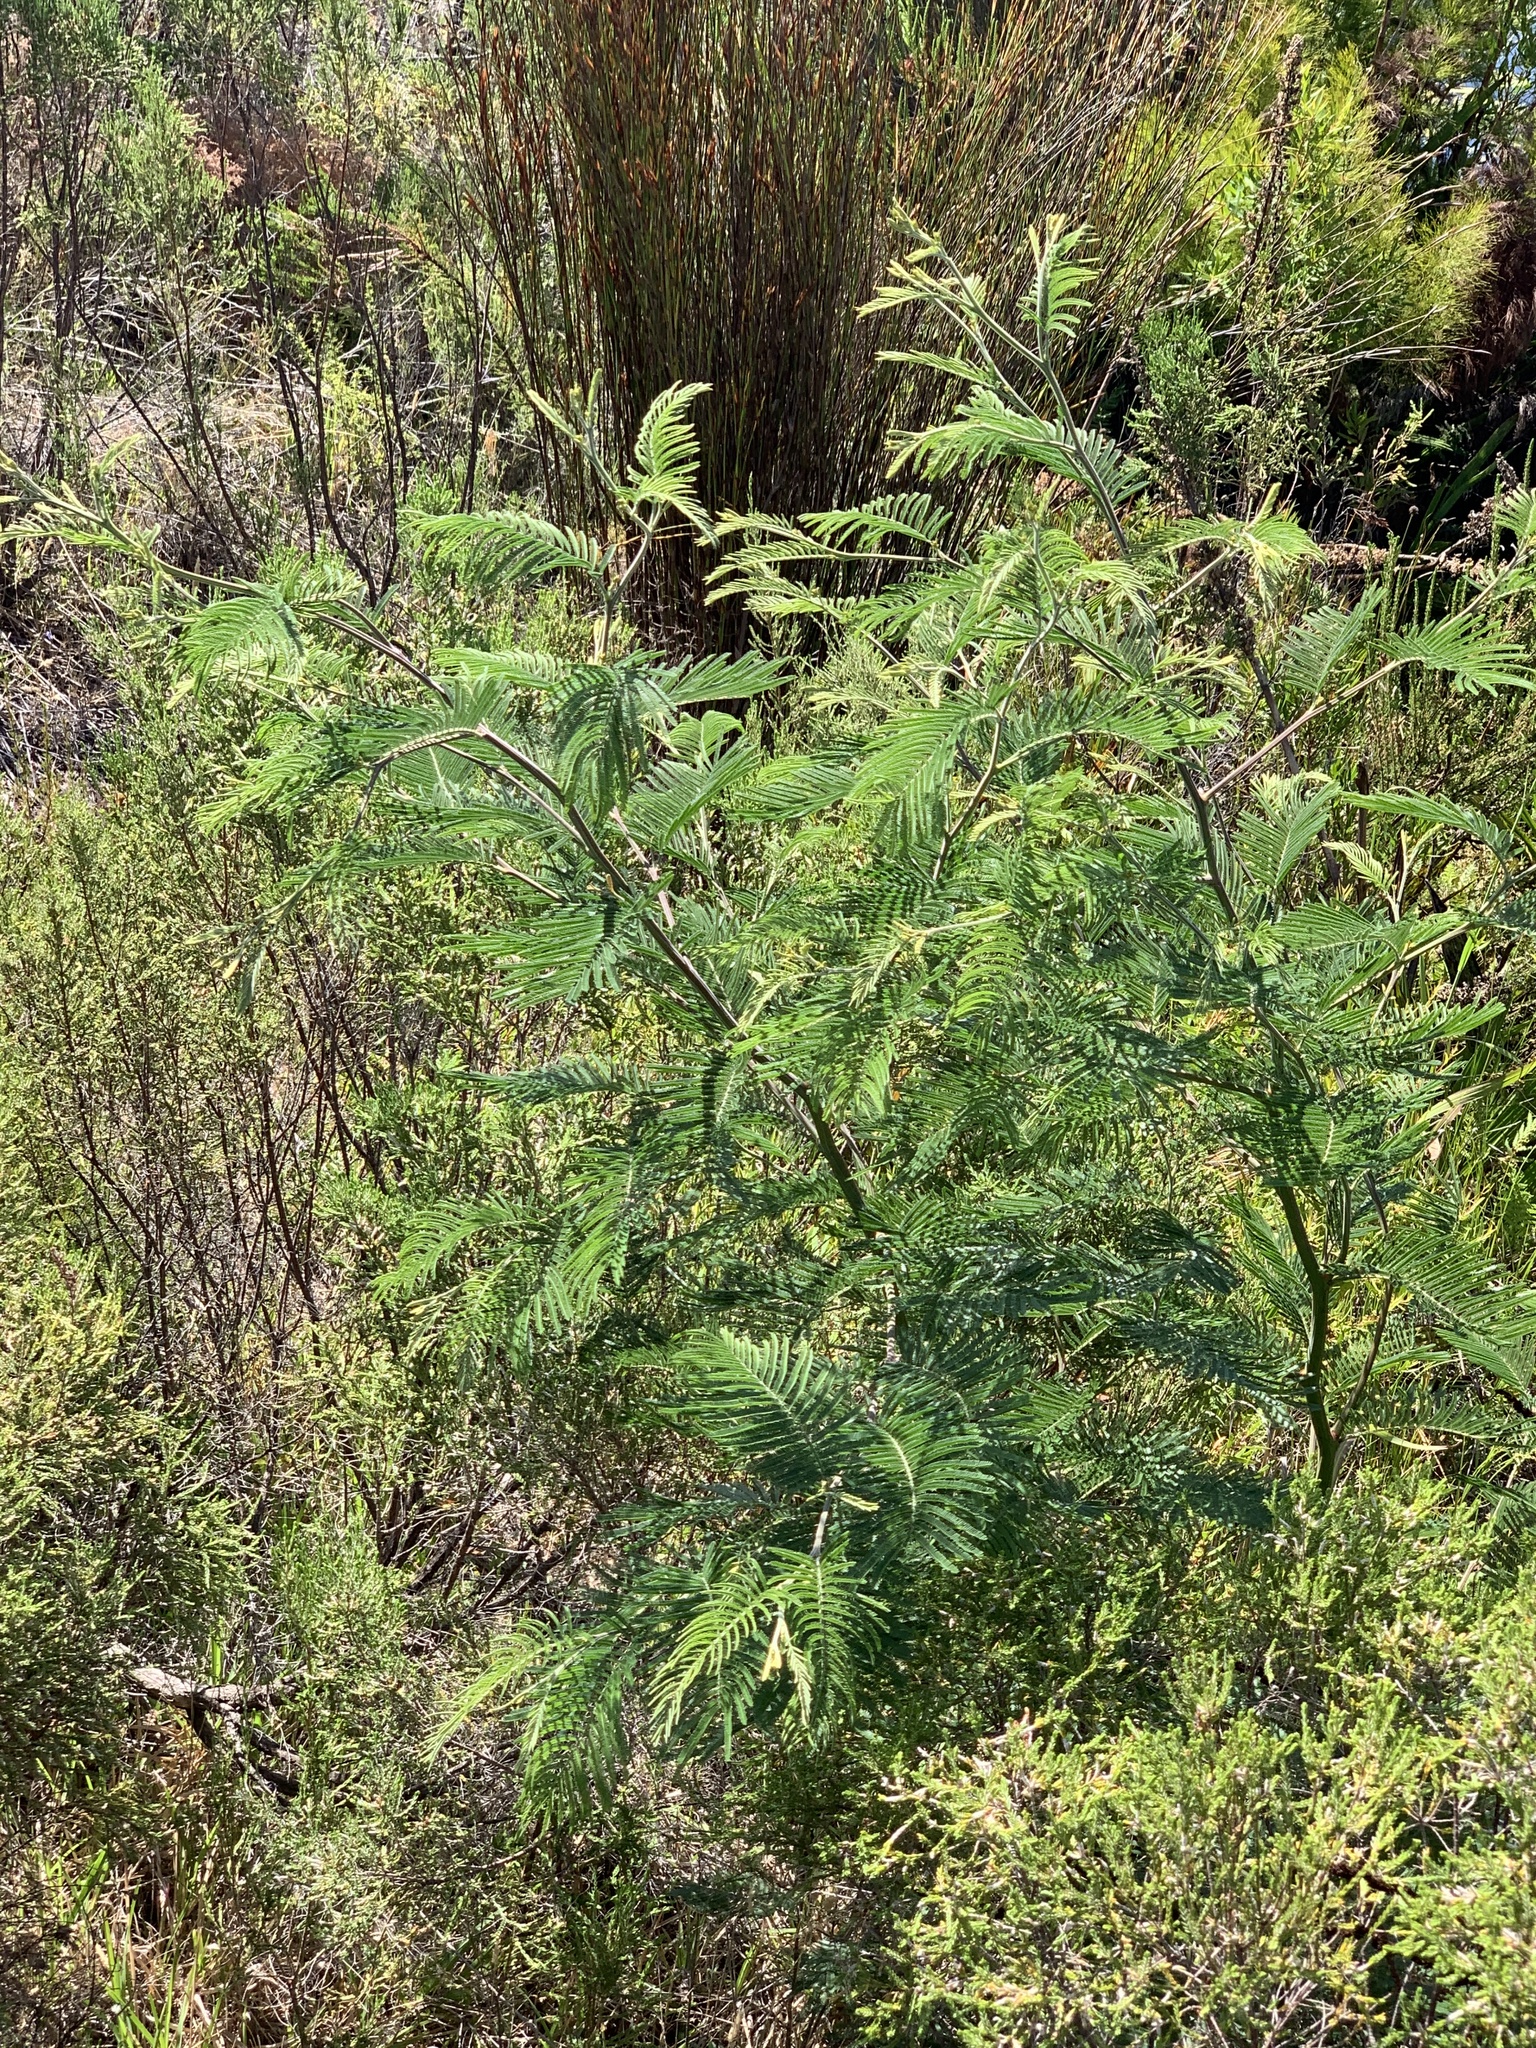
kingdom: Plantae
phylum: Tracheophyta
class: Magnoliopsida
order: Fabales
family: Fabaceae
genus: Acacia
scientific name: Acacia mearnsii
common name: Black wattle
